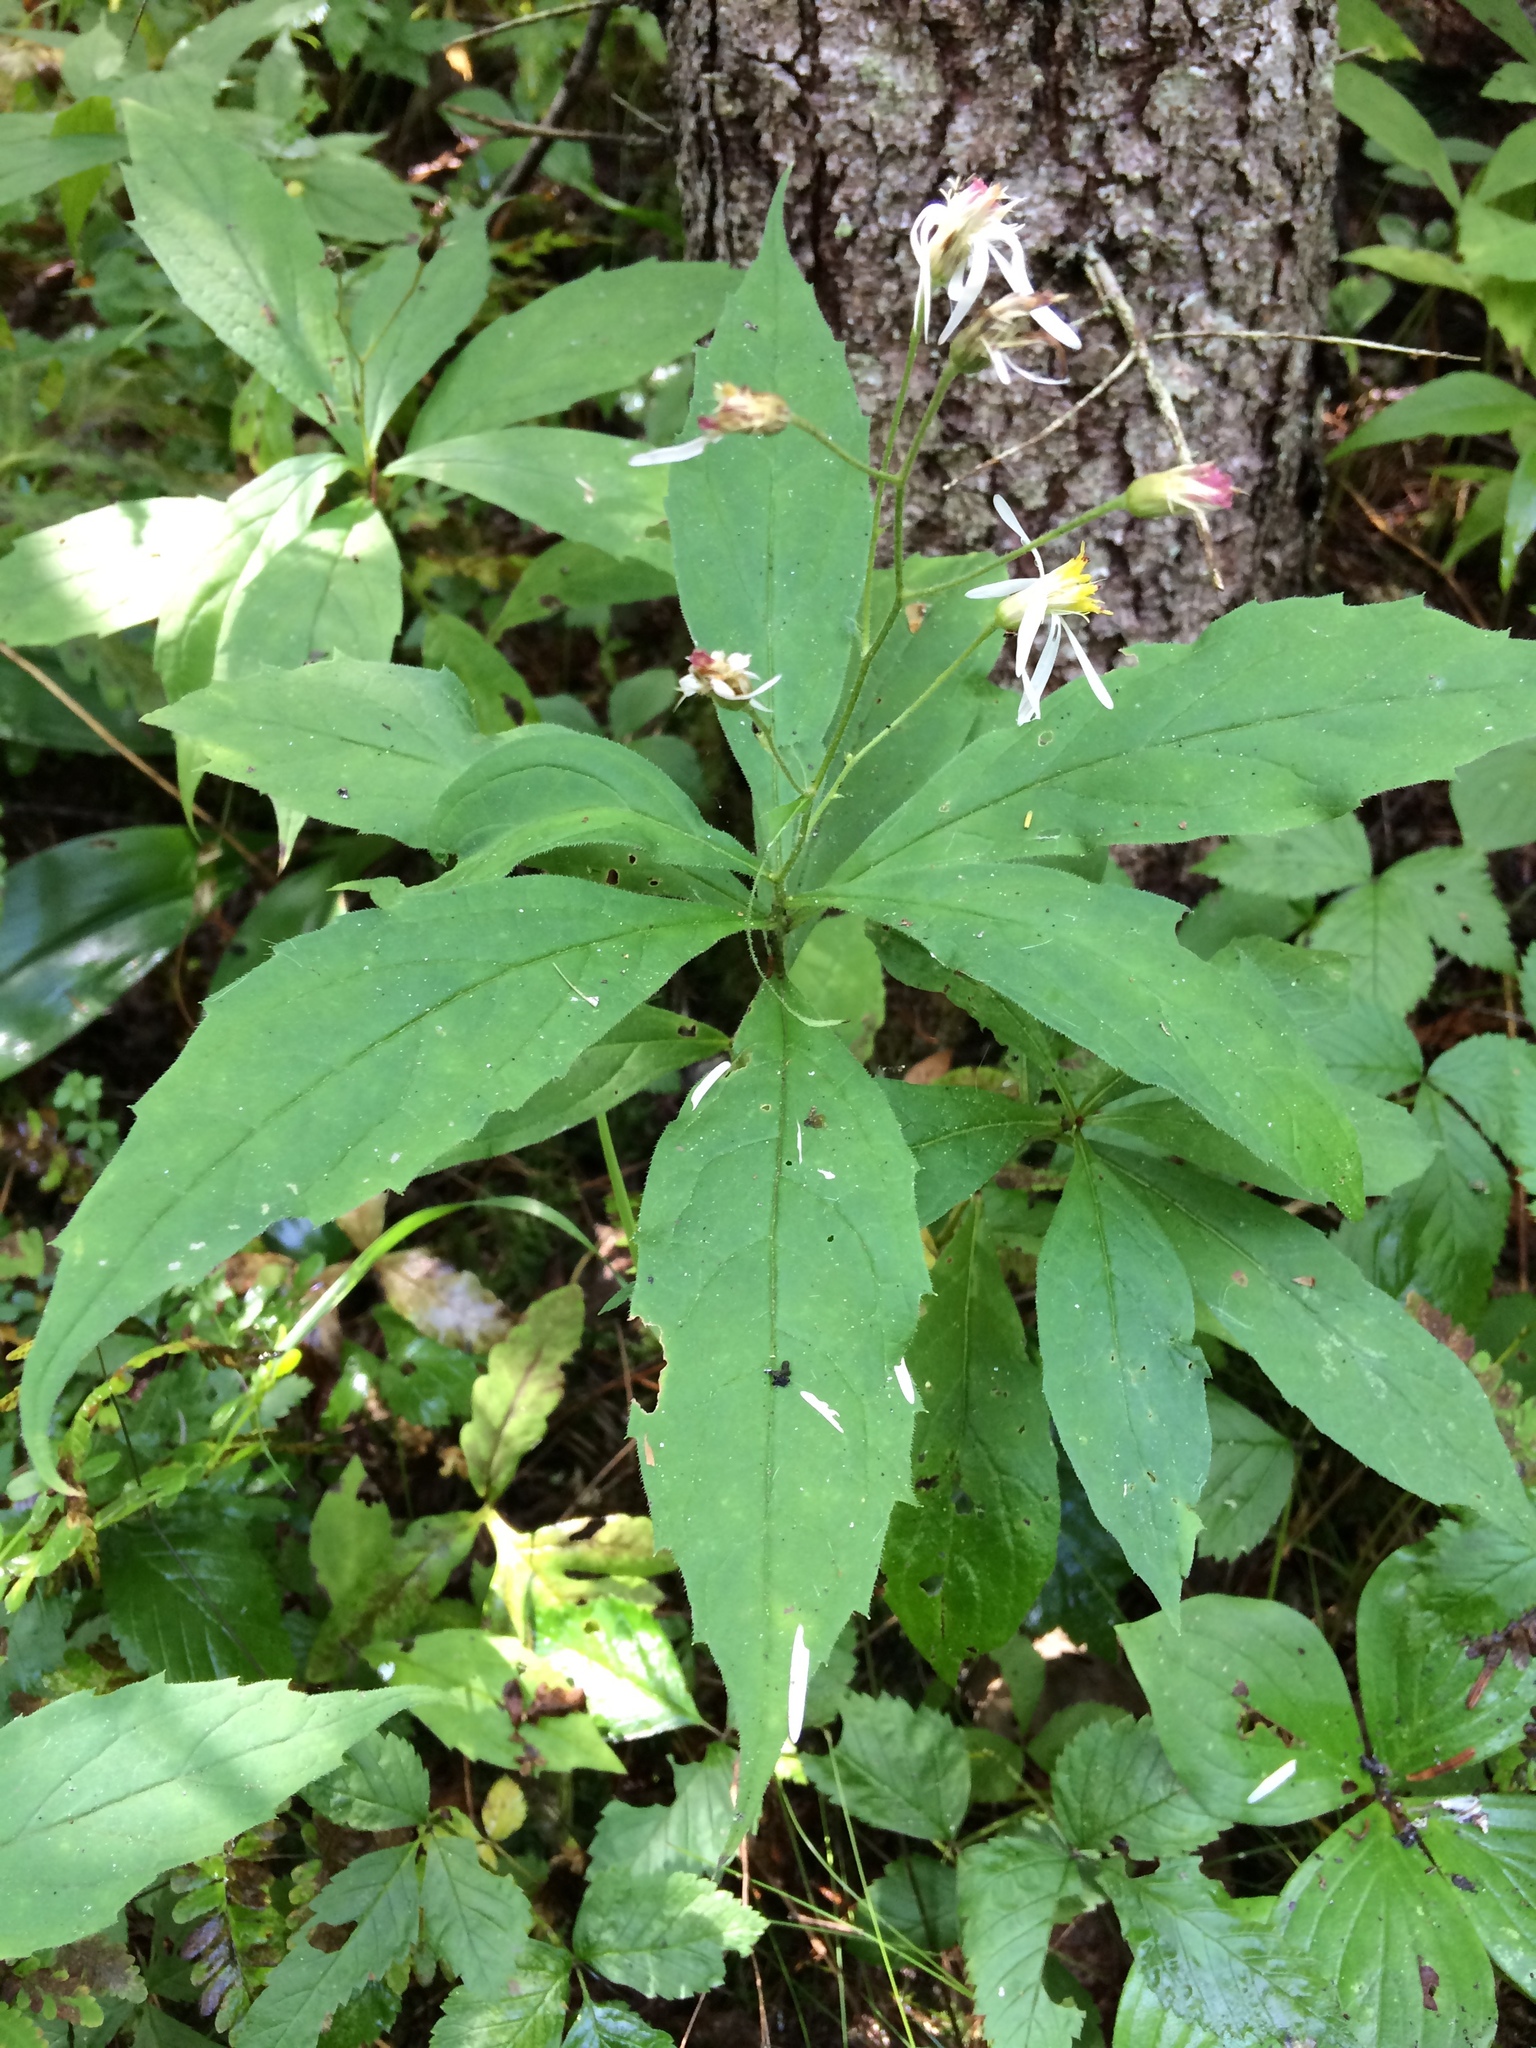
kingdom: Plantae
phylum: Tracheophyta
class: Magnoliopsida
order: Asterales
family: Asteraceae
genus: Oclemena
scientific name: Oclemena acuminata
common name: Mountain aster
